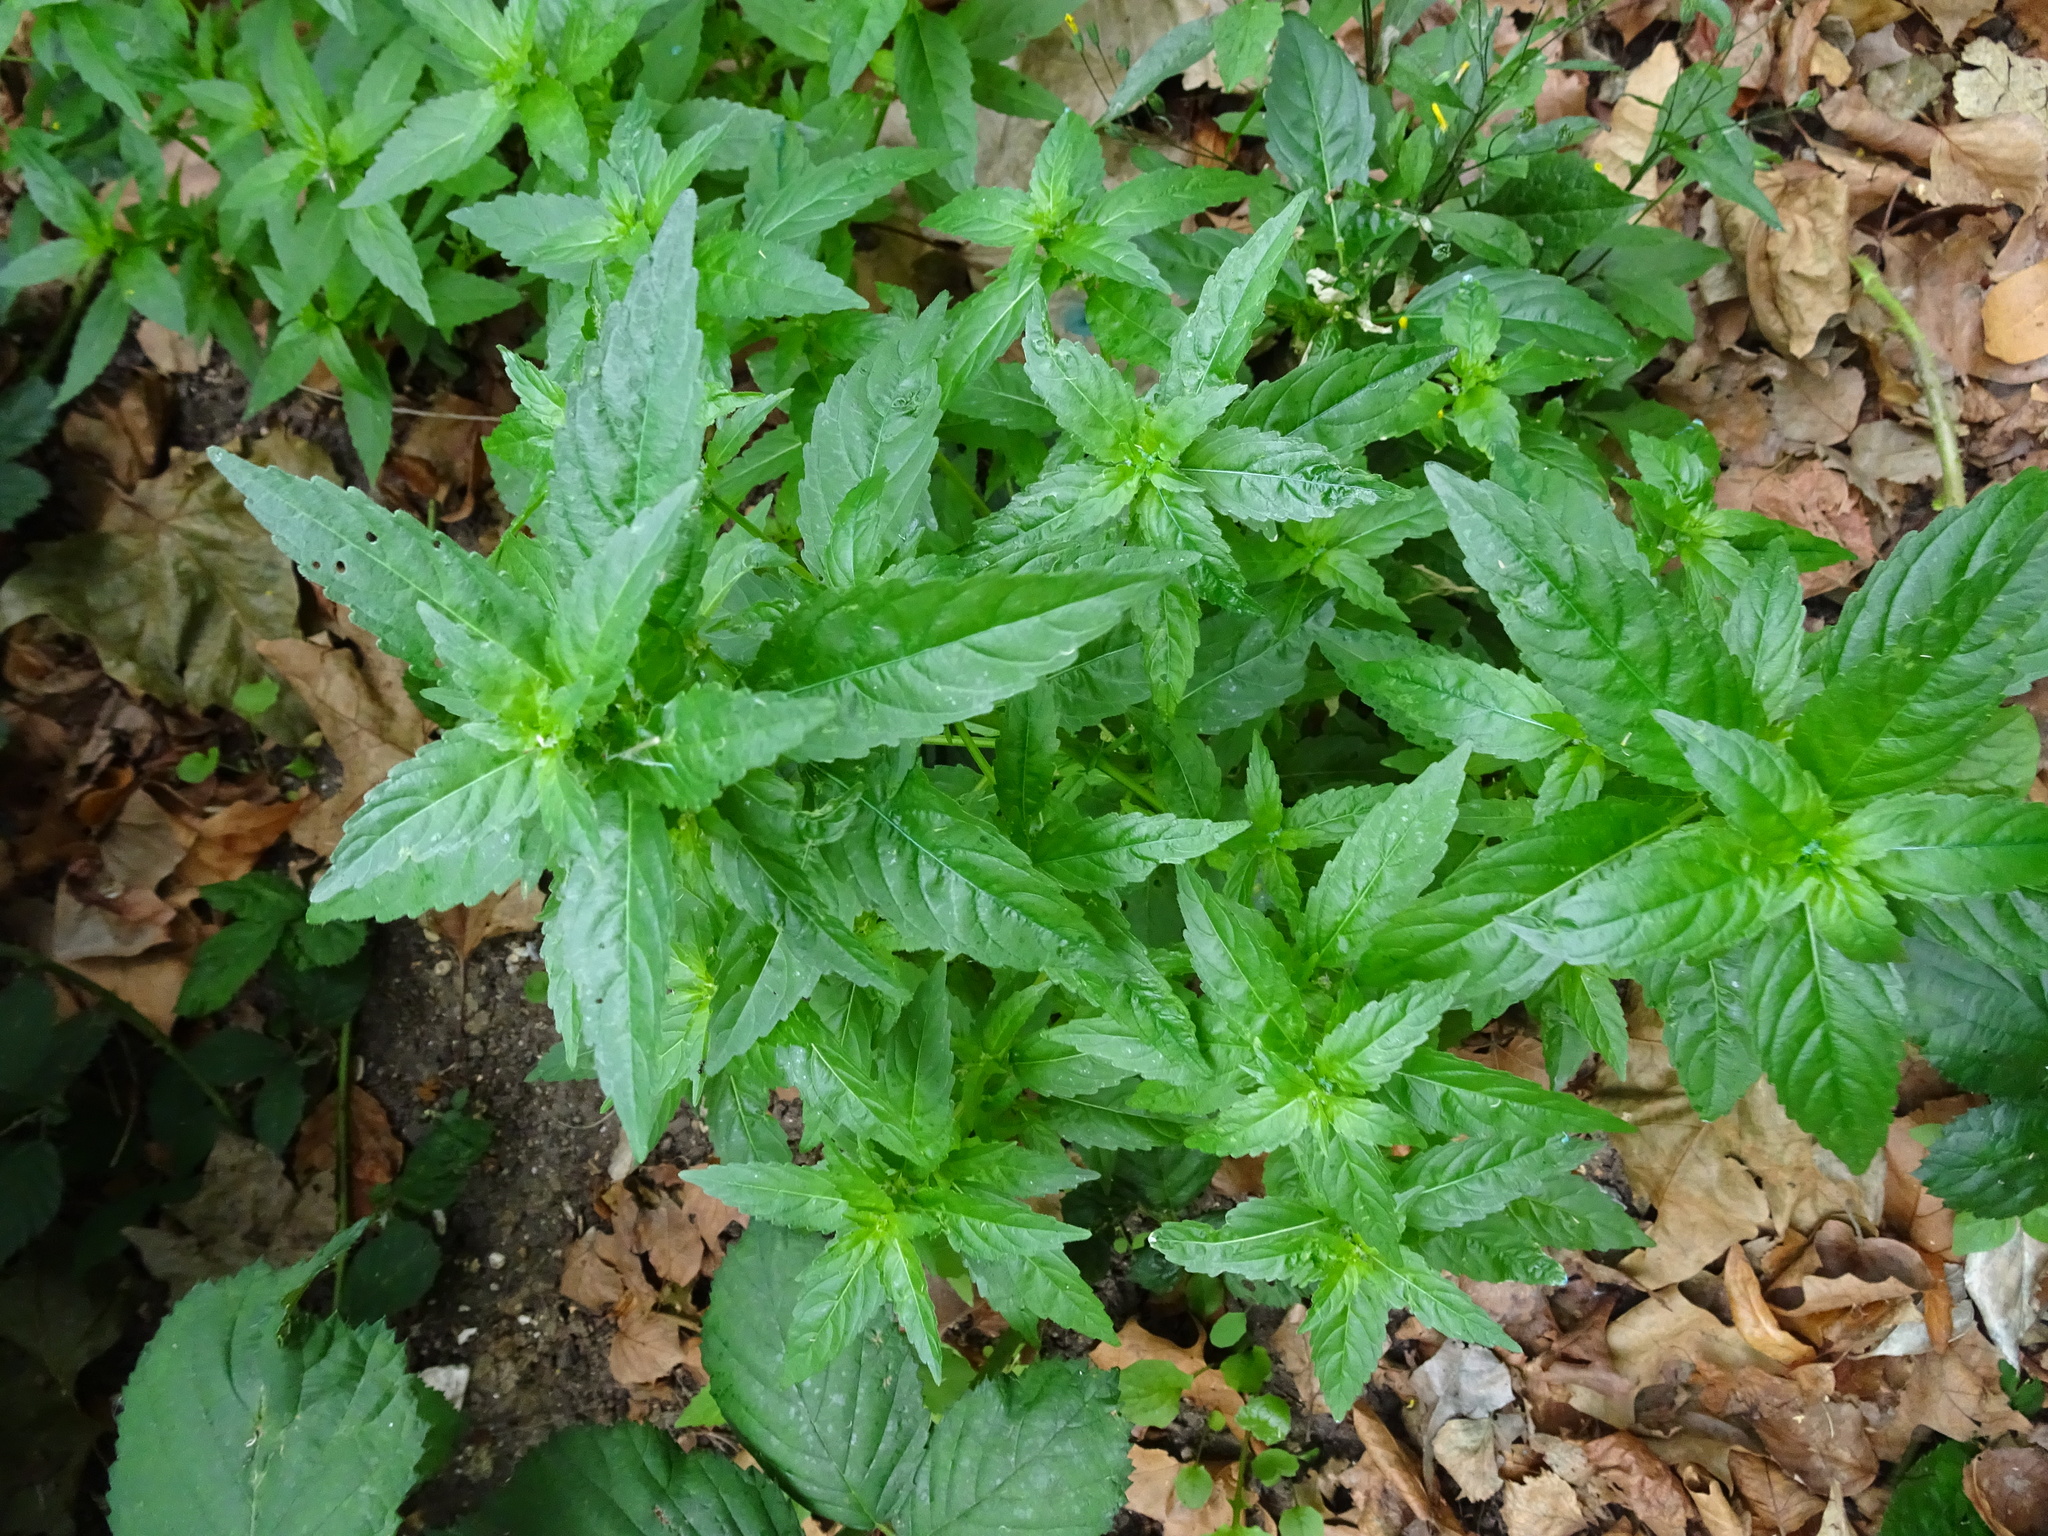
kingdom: Plantae
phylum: Tracheophyta
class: Magnoliopsida
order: Malpighiales
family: Euphorbiaceae
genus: Mercurialis
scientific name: Mercurialis annua
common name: Annual mercury
